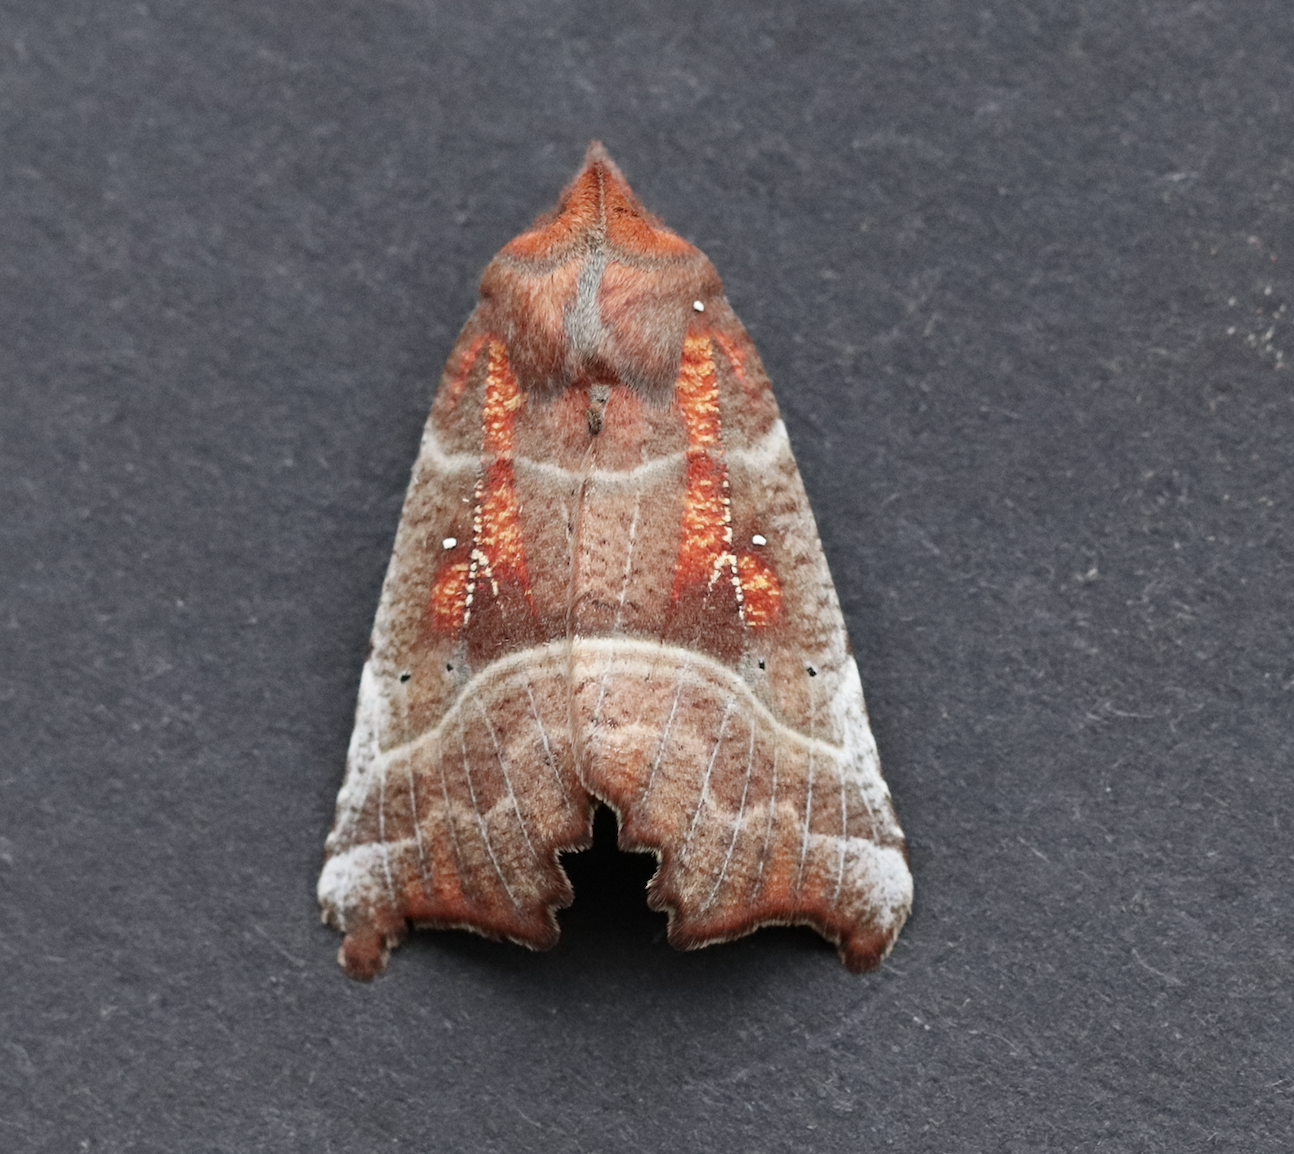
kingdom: Animalia
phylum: Arthropoda
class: Insecta
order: Lepidoptera
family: Erebidae
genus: Scoliopteryx
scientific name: Scoliopteryx libatrix
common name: Herald
